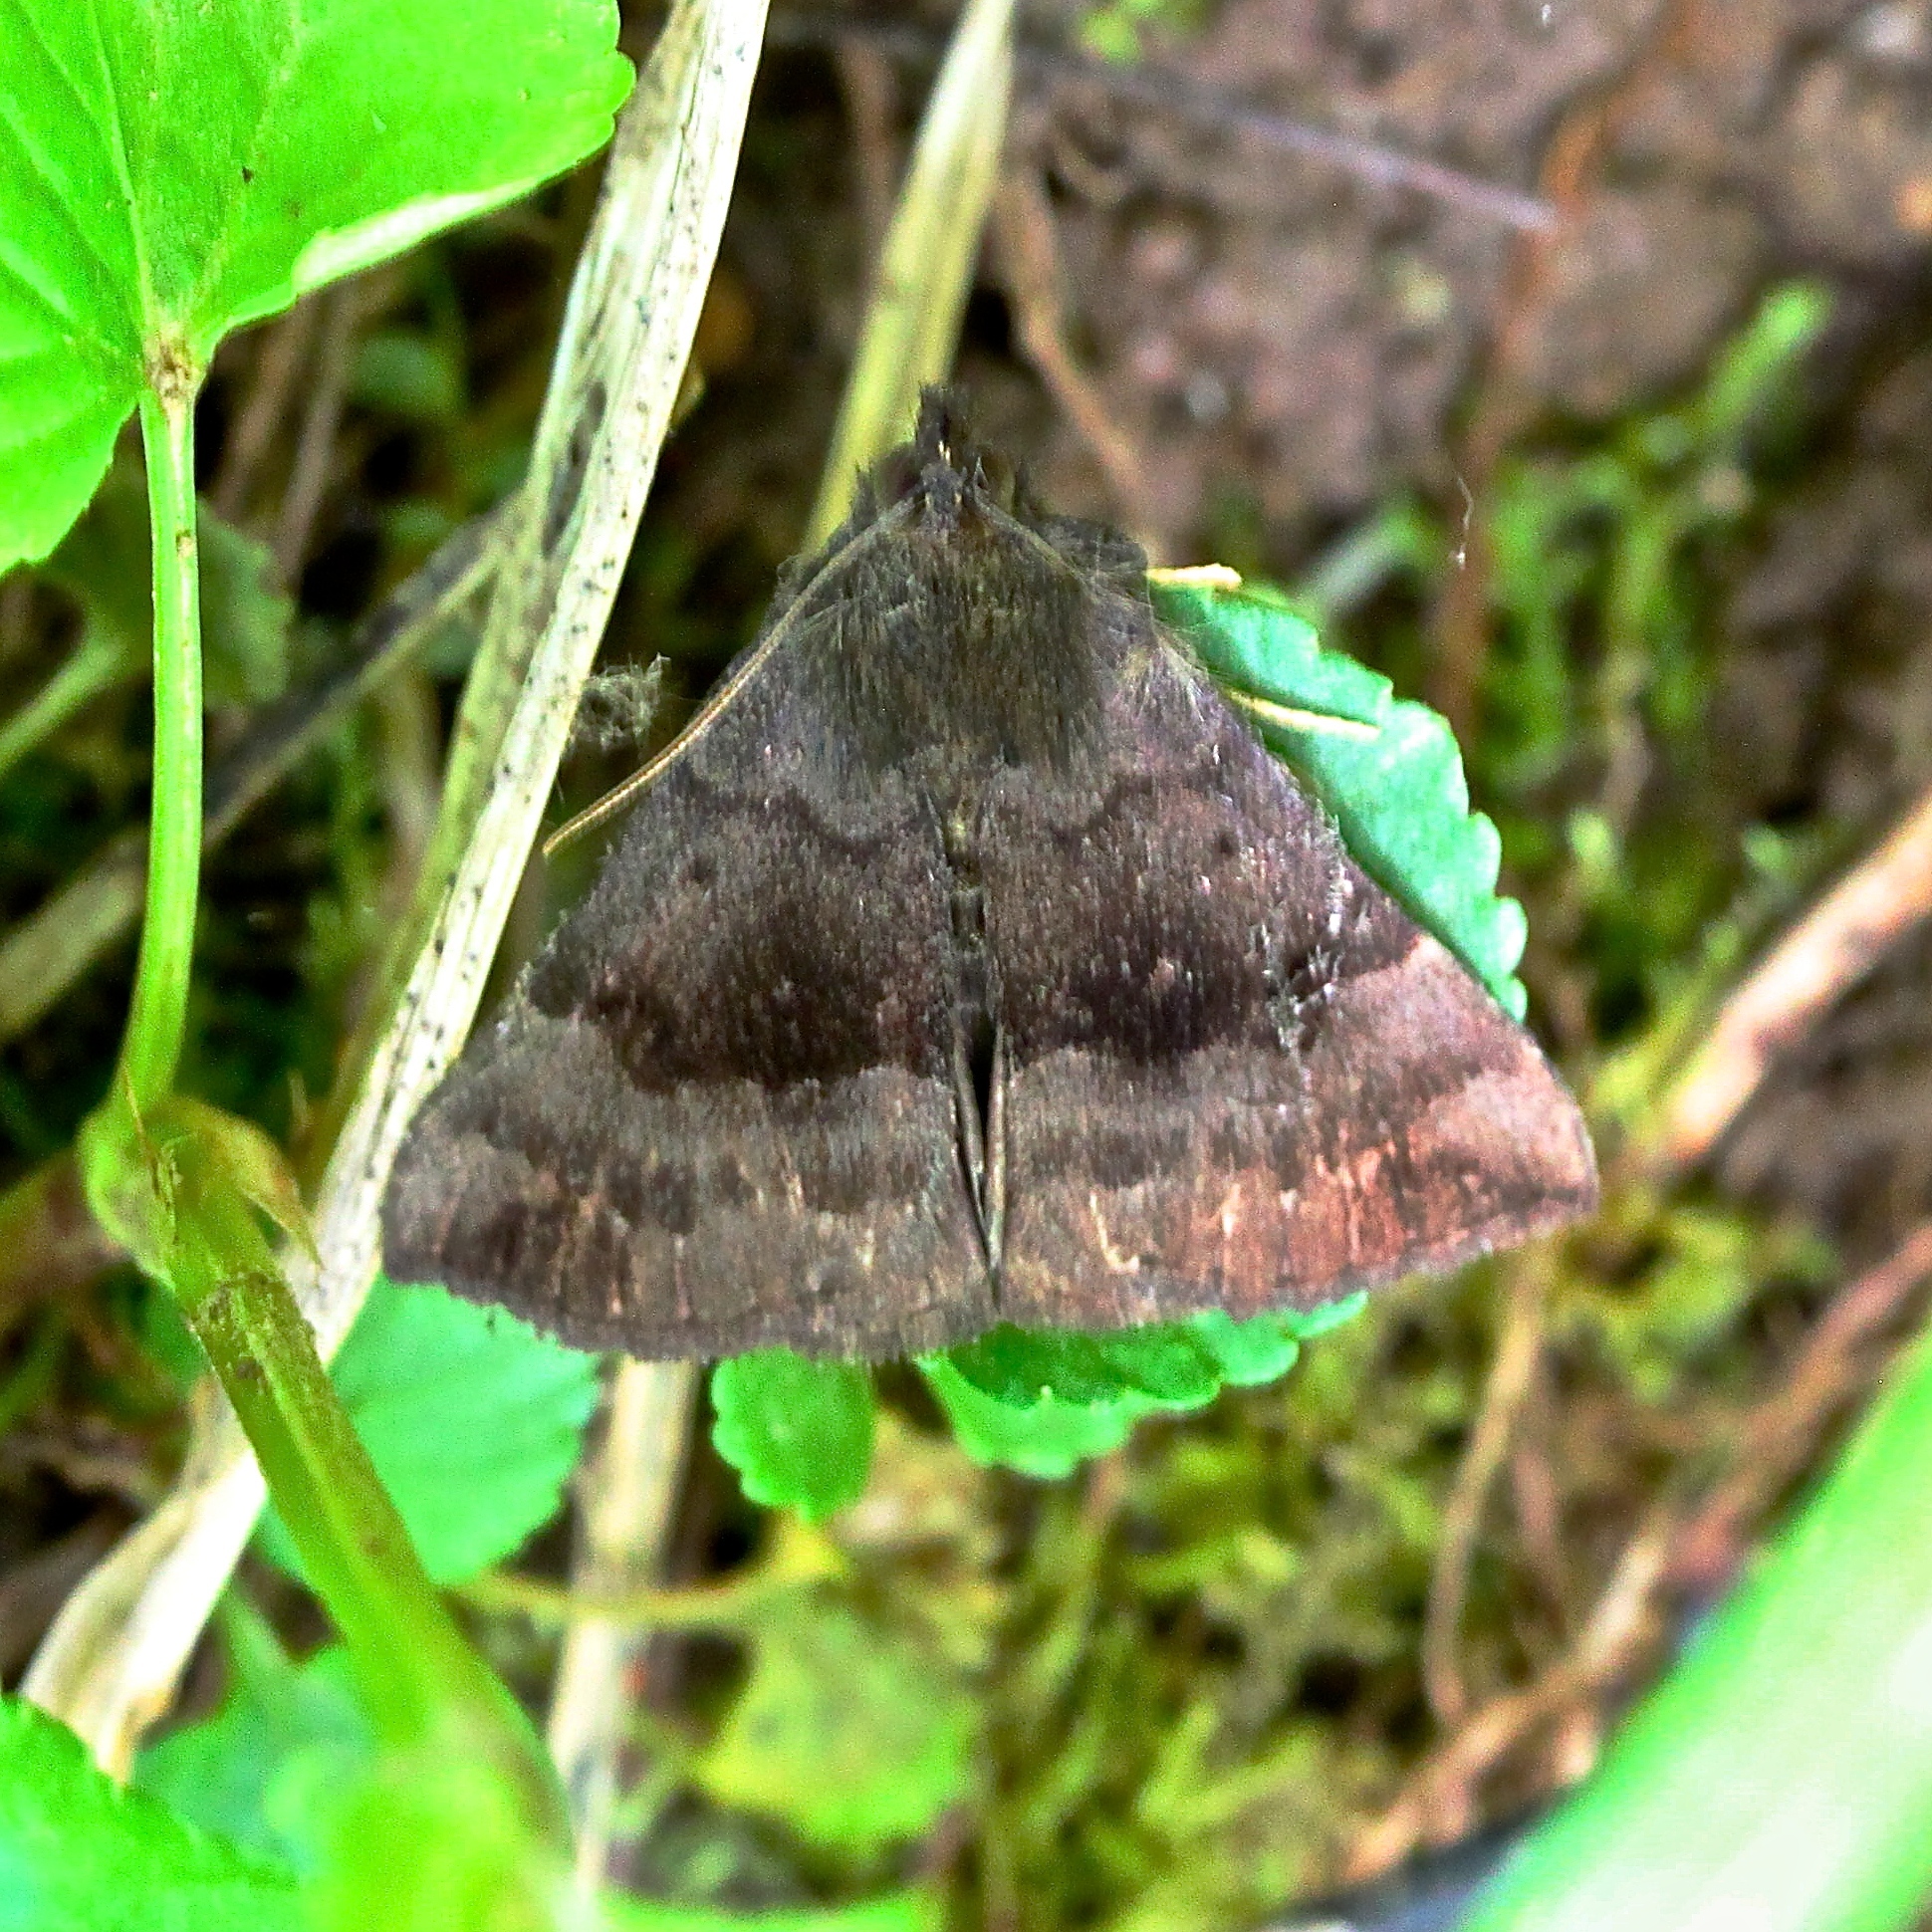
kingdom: Animalia
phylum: Arthropoda
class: Insecta
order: Lepidoptera
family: Erebidae
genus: Hypena
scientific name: Hypena madefactalis
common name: Gray-edged snout
